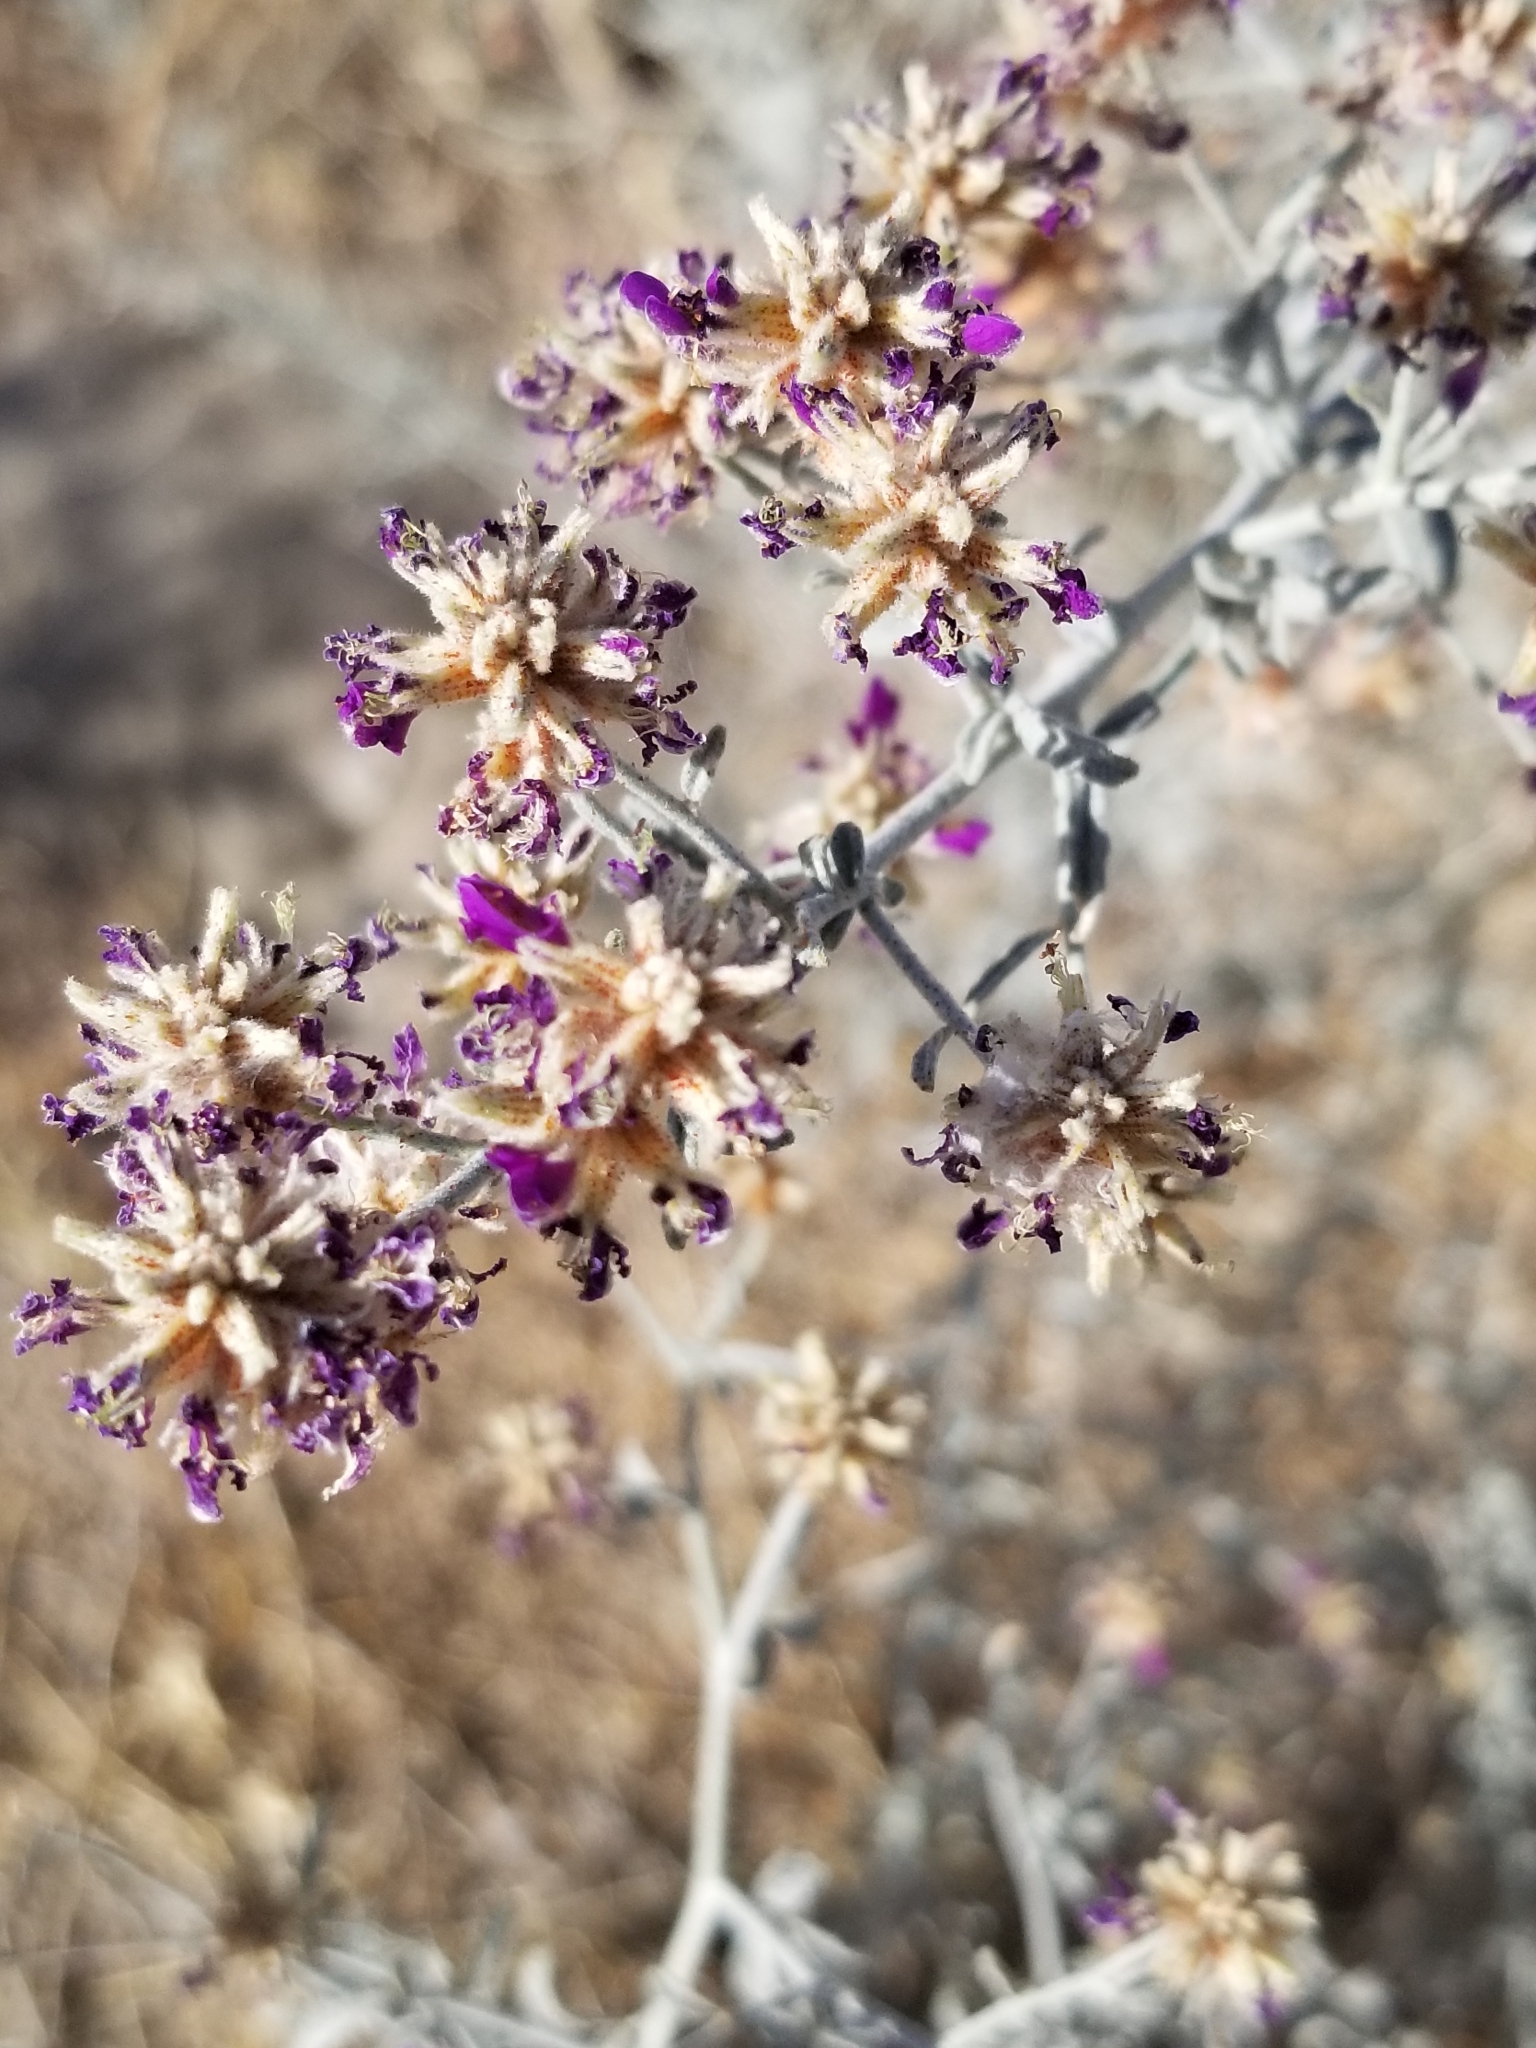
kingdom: Plantae
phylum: Tracheophyta
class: Magnoliopsida
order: Fabales
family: Fabaceae
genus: Psorothamnus
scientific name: Psorothamnus emoryi
